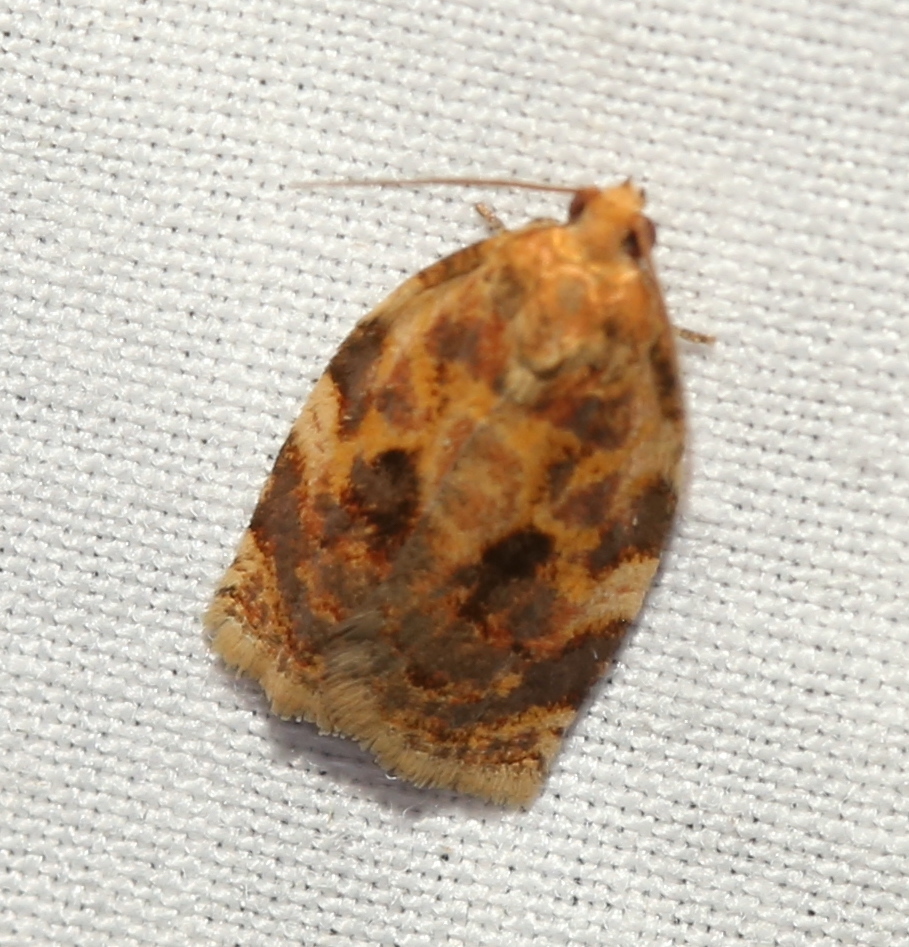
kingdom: Animalia
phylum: Arthropoda
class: Insecta
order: Lepidoptera
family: Tortricidae
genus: Archips
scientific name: Archips fervidana
